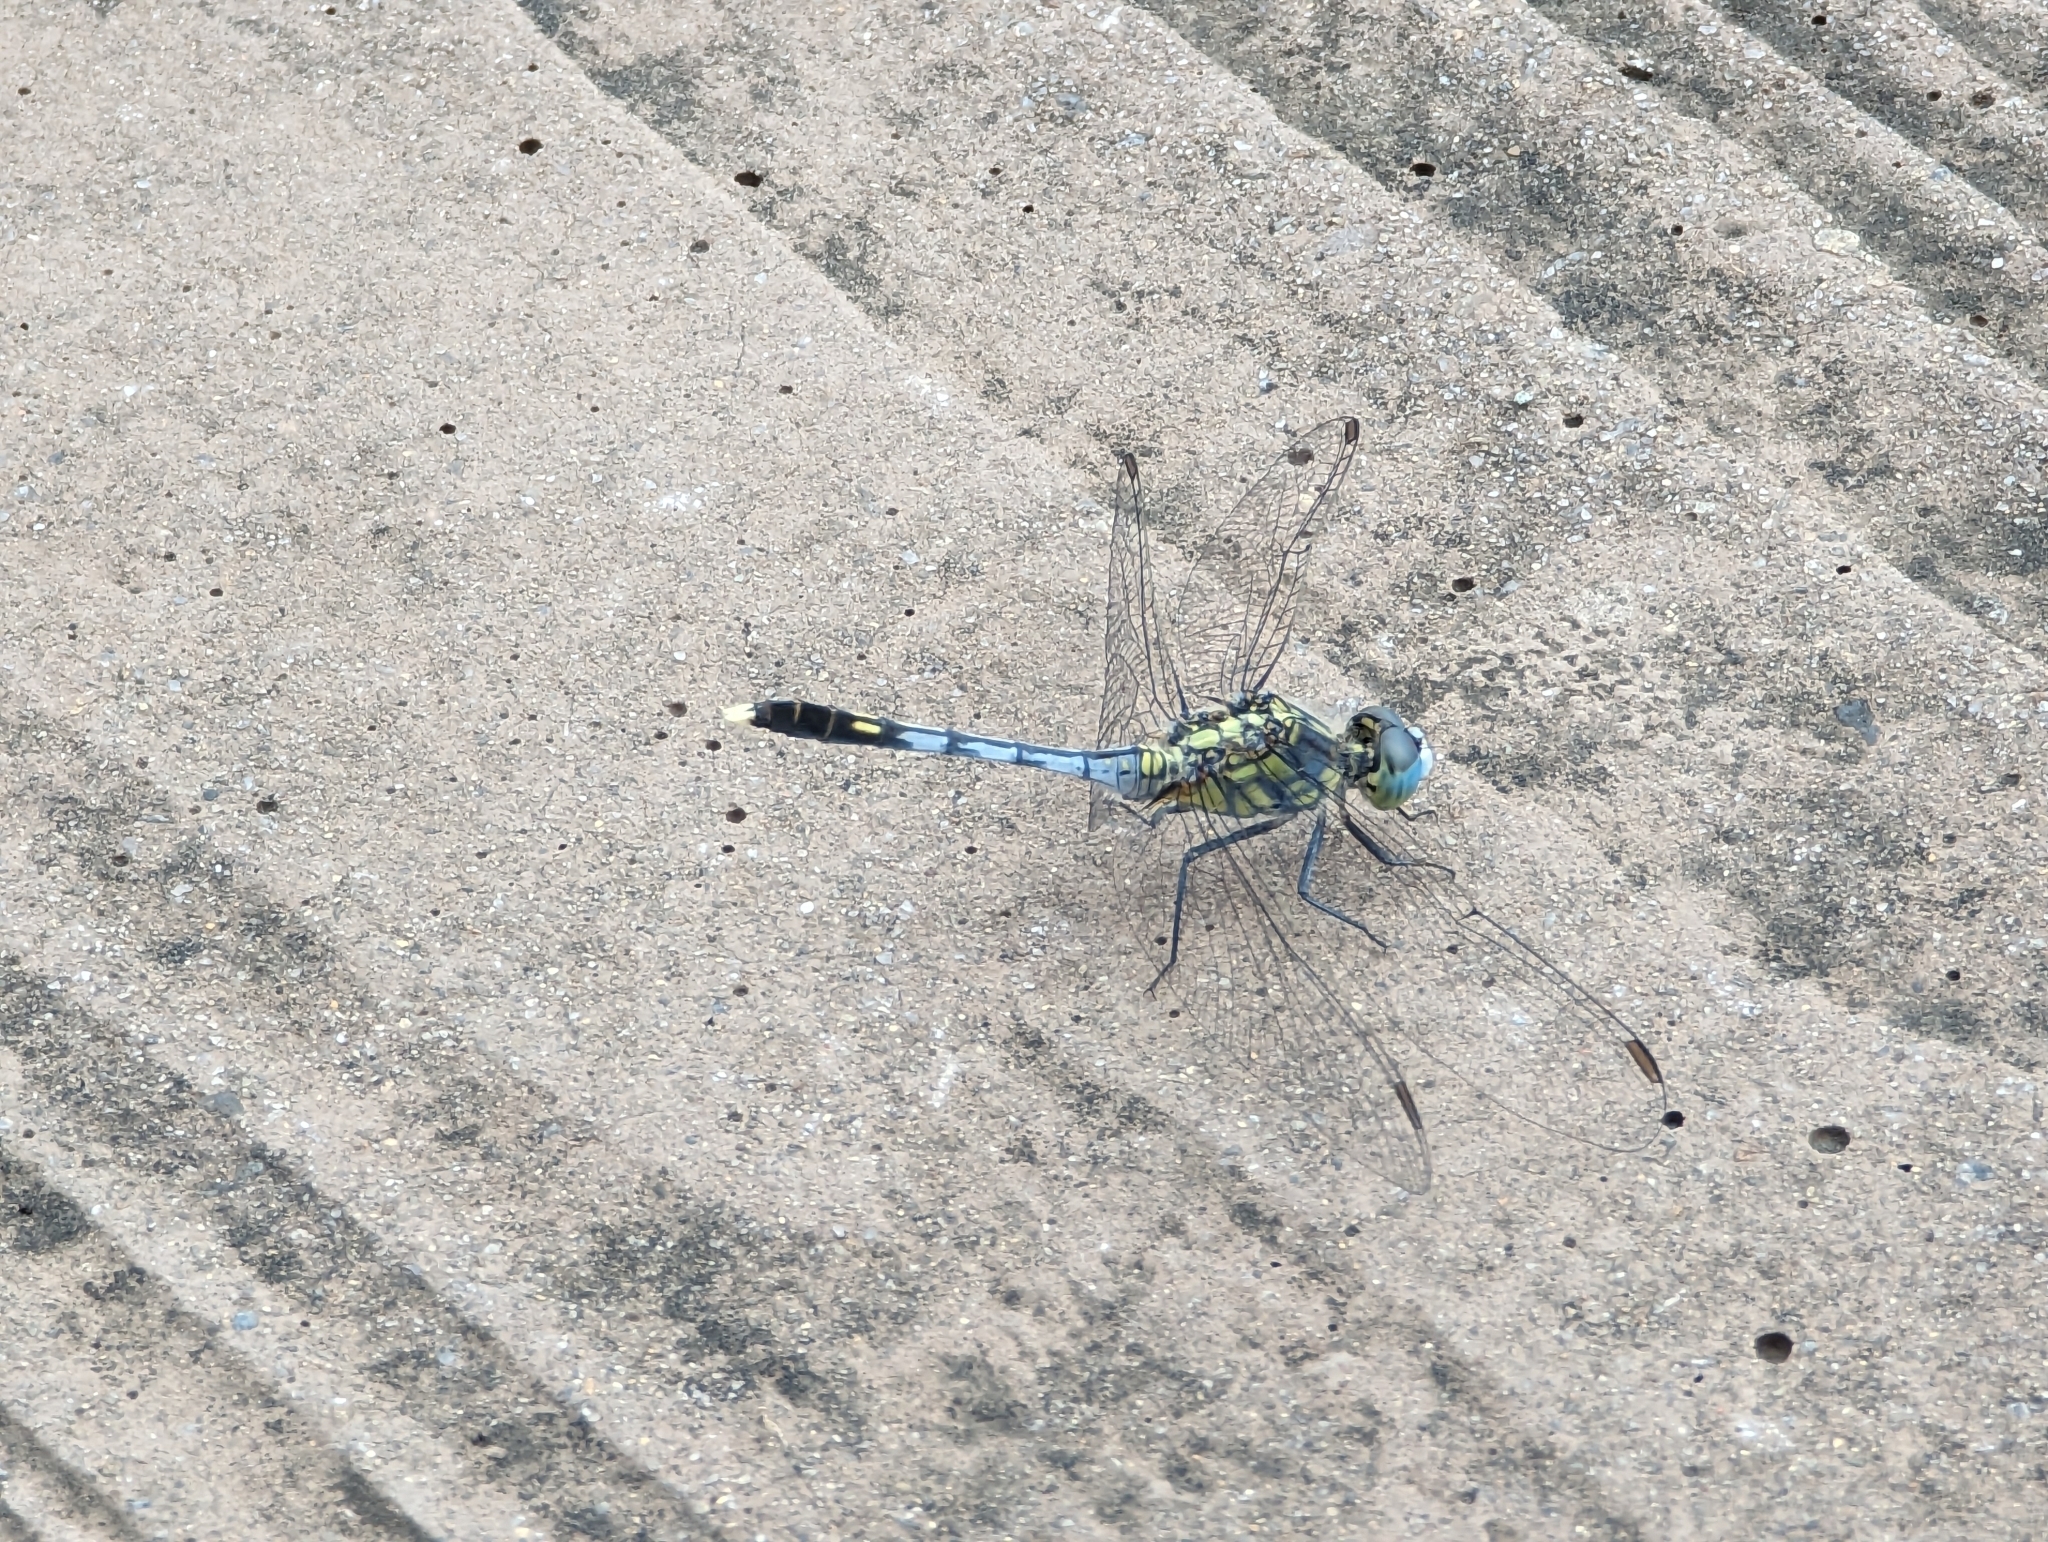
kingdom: Animalia
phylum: Arthropoda
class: Insecta
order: Odonata
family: Libellulidae
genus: Diplacodes
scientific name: Diplacodes trivialis
